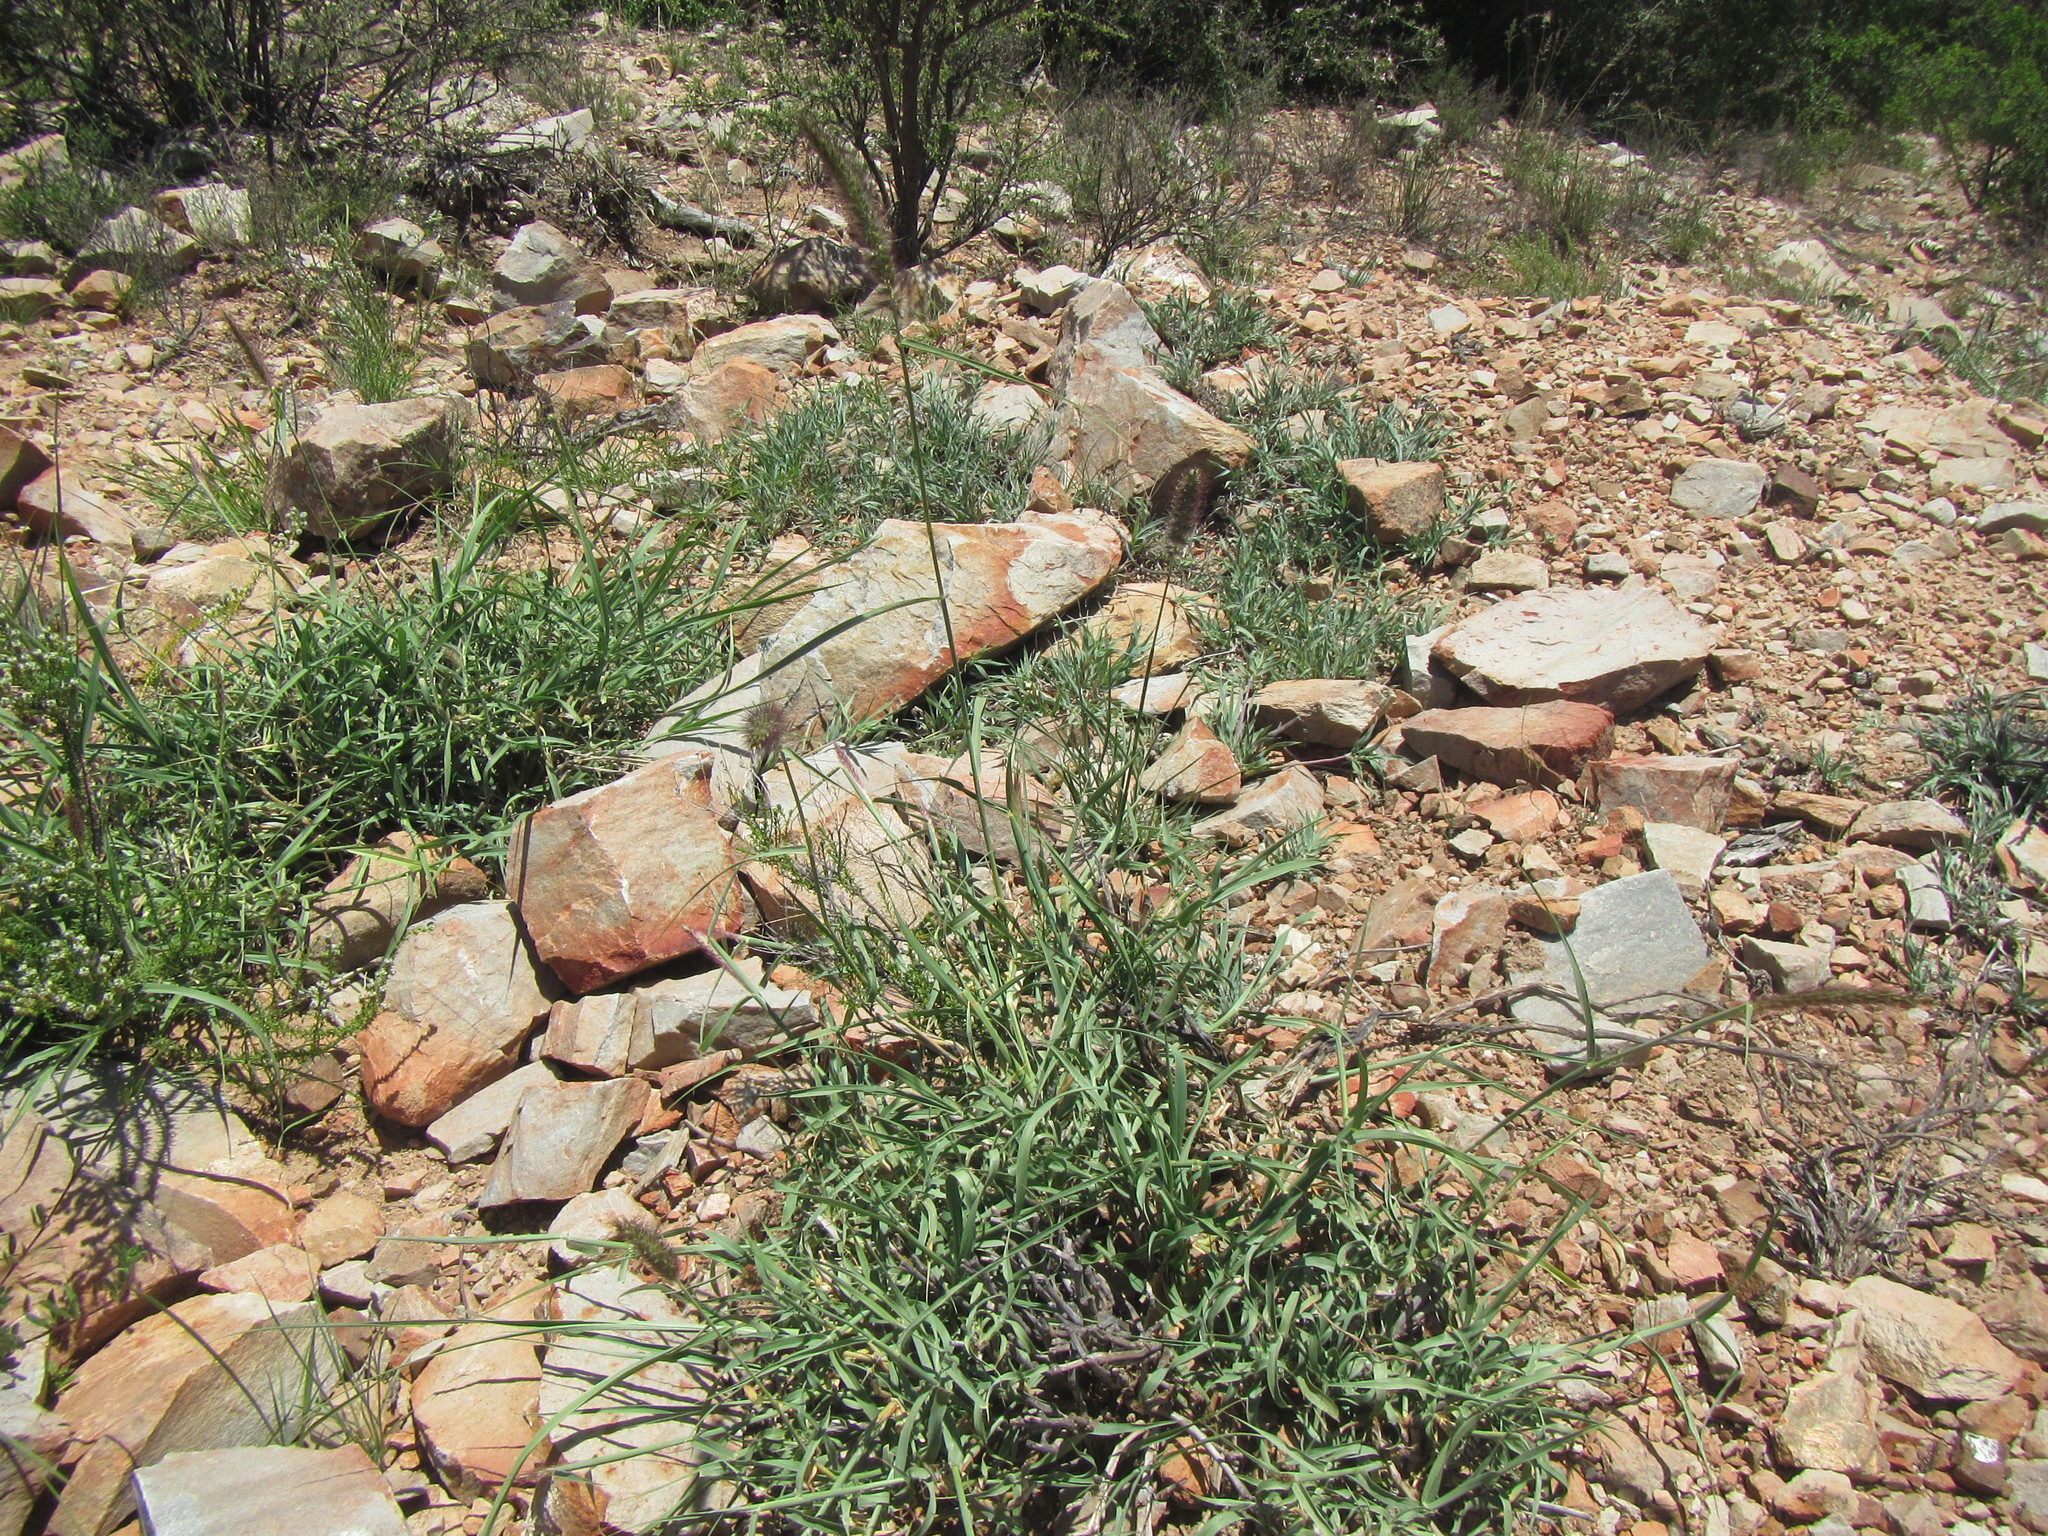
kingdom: Plantae
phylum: Tracheophyta
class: Liliopsida
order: Poales
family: Poaceae
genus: Cenchrus
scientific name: Cenchrus ciliaris
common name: Buffelgrass
